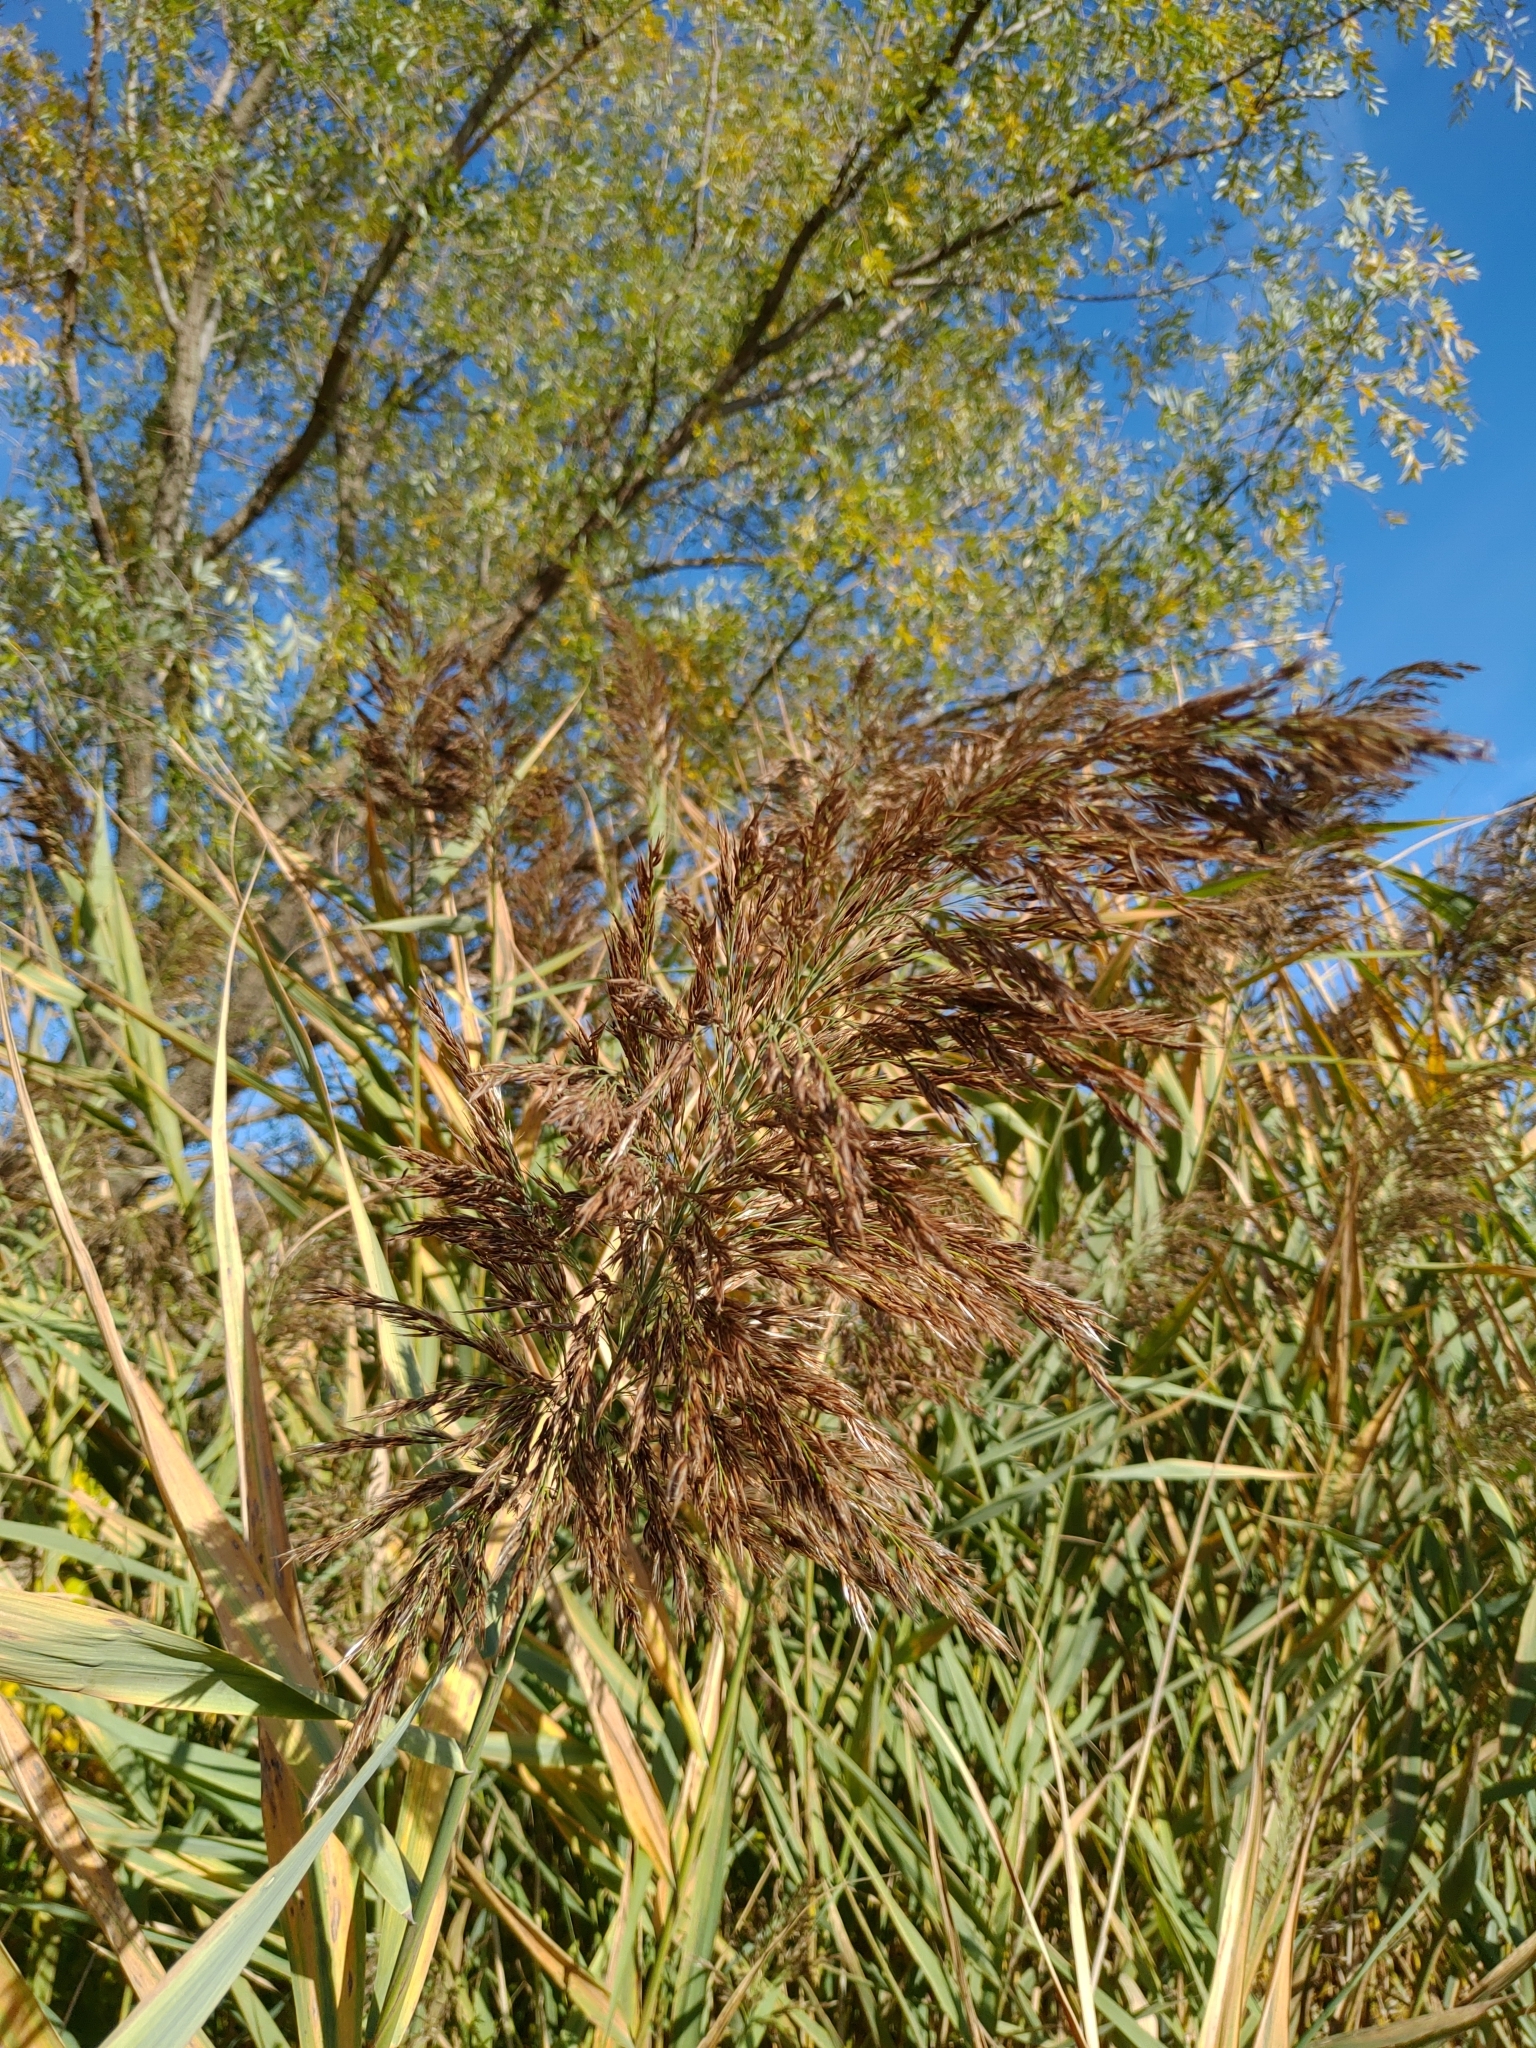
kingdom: Plantae
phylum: Tracheophyta
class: Liliopsida
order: Poales
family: Poaceae
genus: Phragmites
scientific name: Phragmites australis
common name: Common reed
